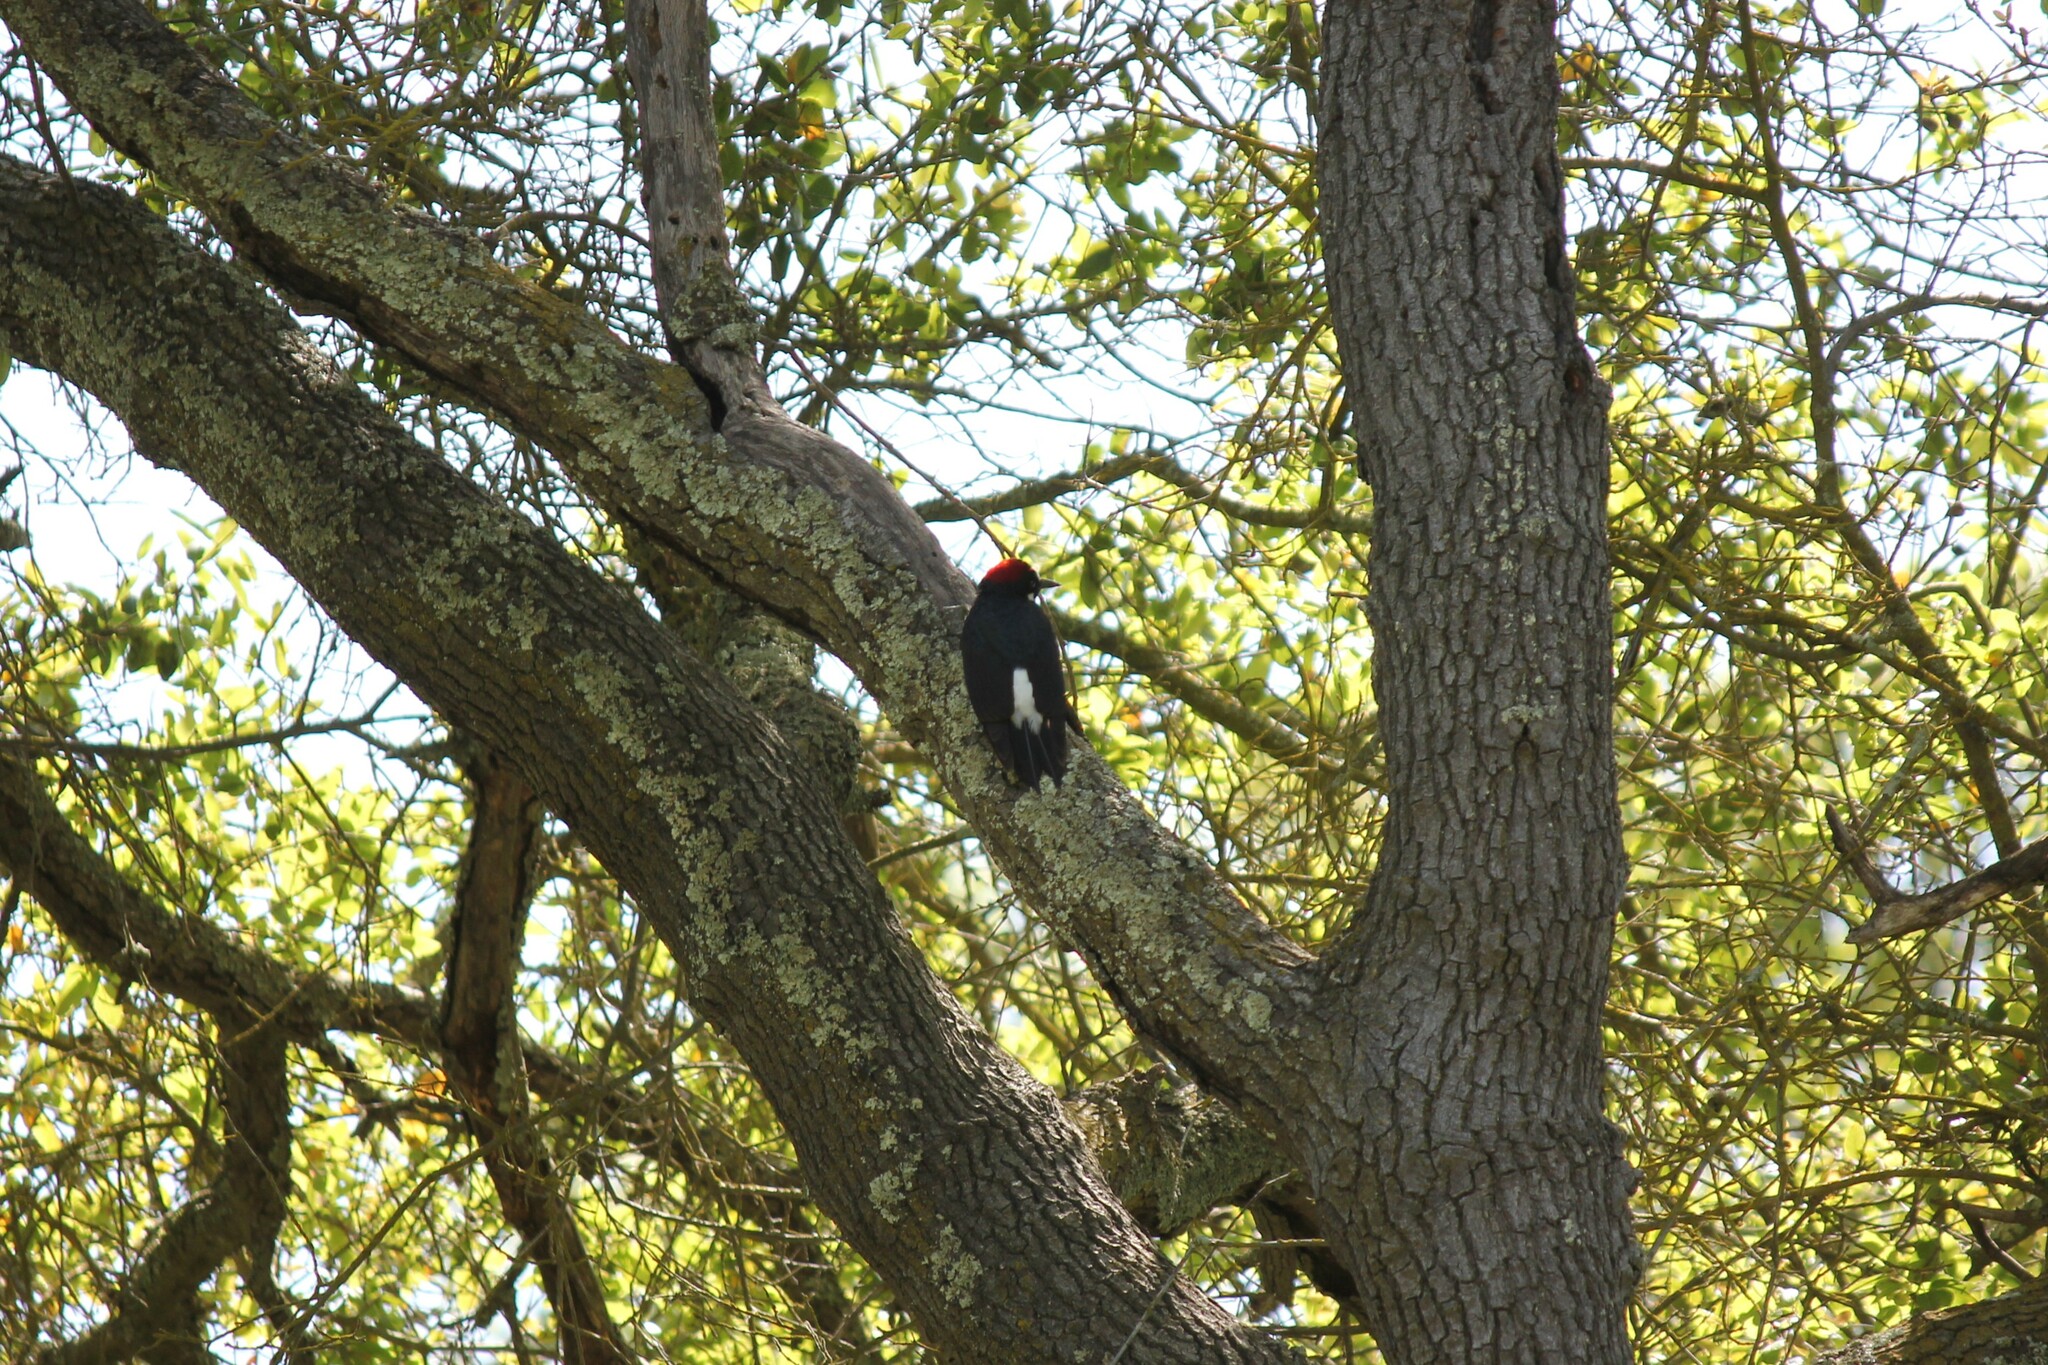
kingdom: Animalia
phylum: Chordata
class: Aves
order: Piciformes
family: Picidae
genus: Melanerpes
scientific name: Melanerpes formicivorus
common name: Acorn woodpecker
